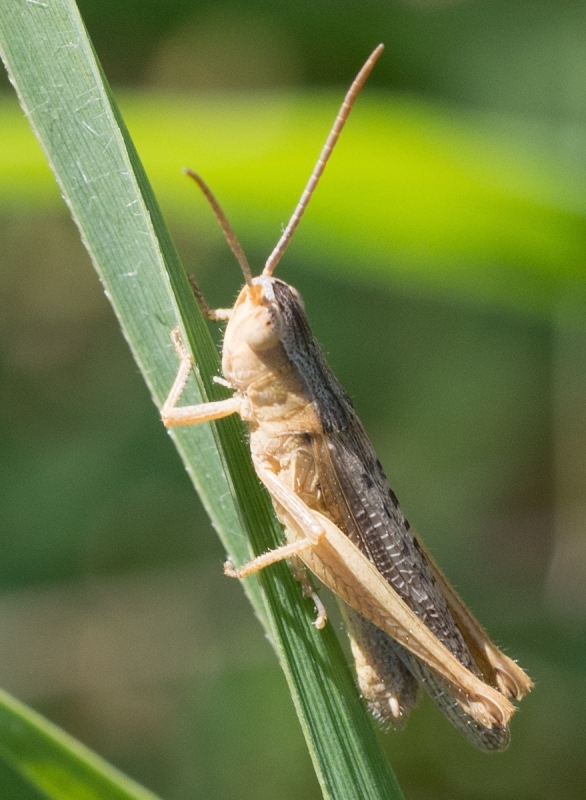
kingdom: Animalia
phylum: Arthropoda
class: Insecta
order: Orthoptera
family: Acrididae
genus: Chorthippus
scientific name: Chorthippus dichrous
